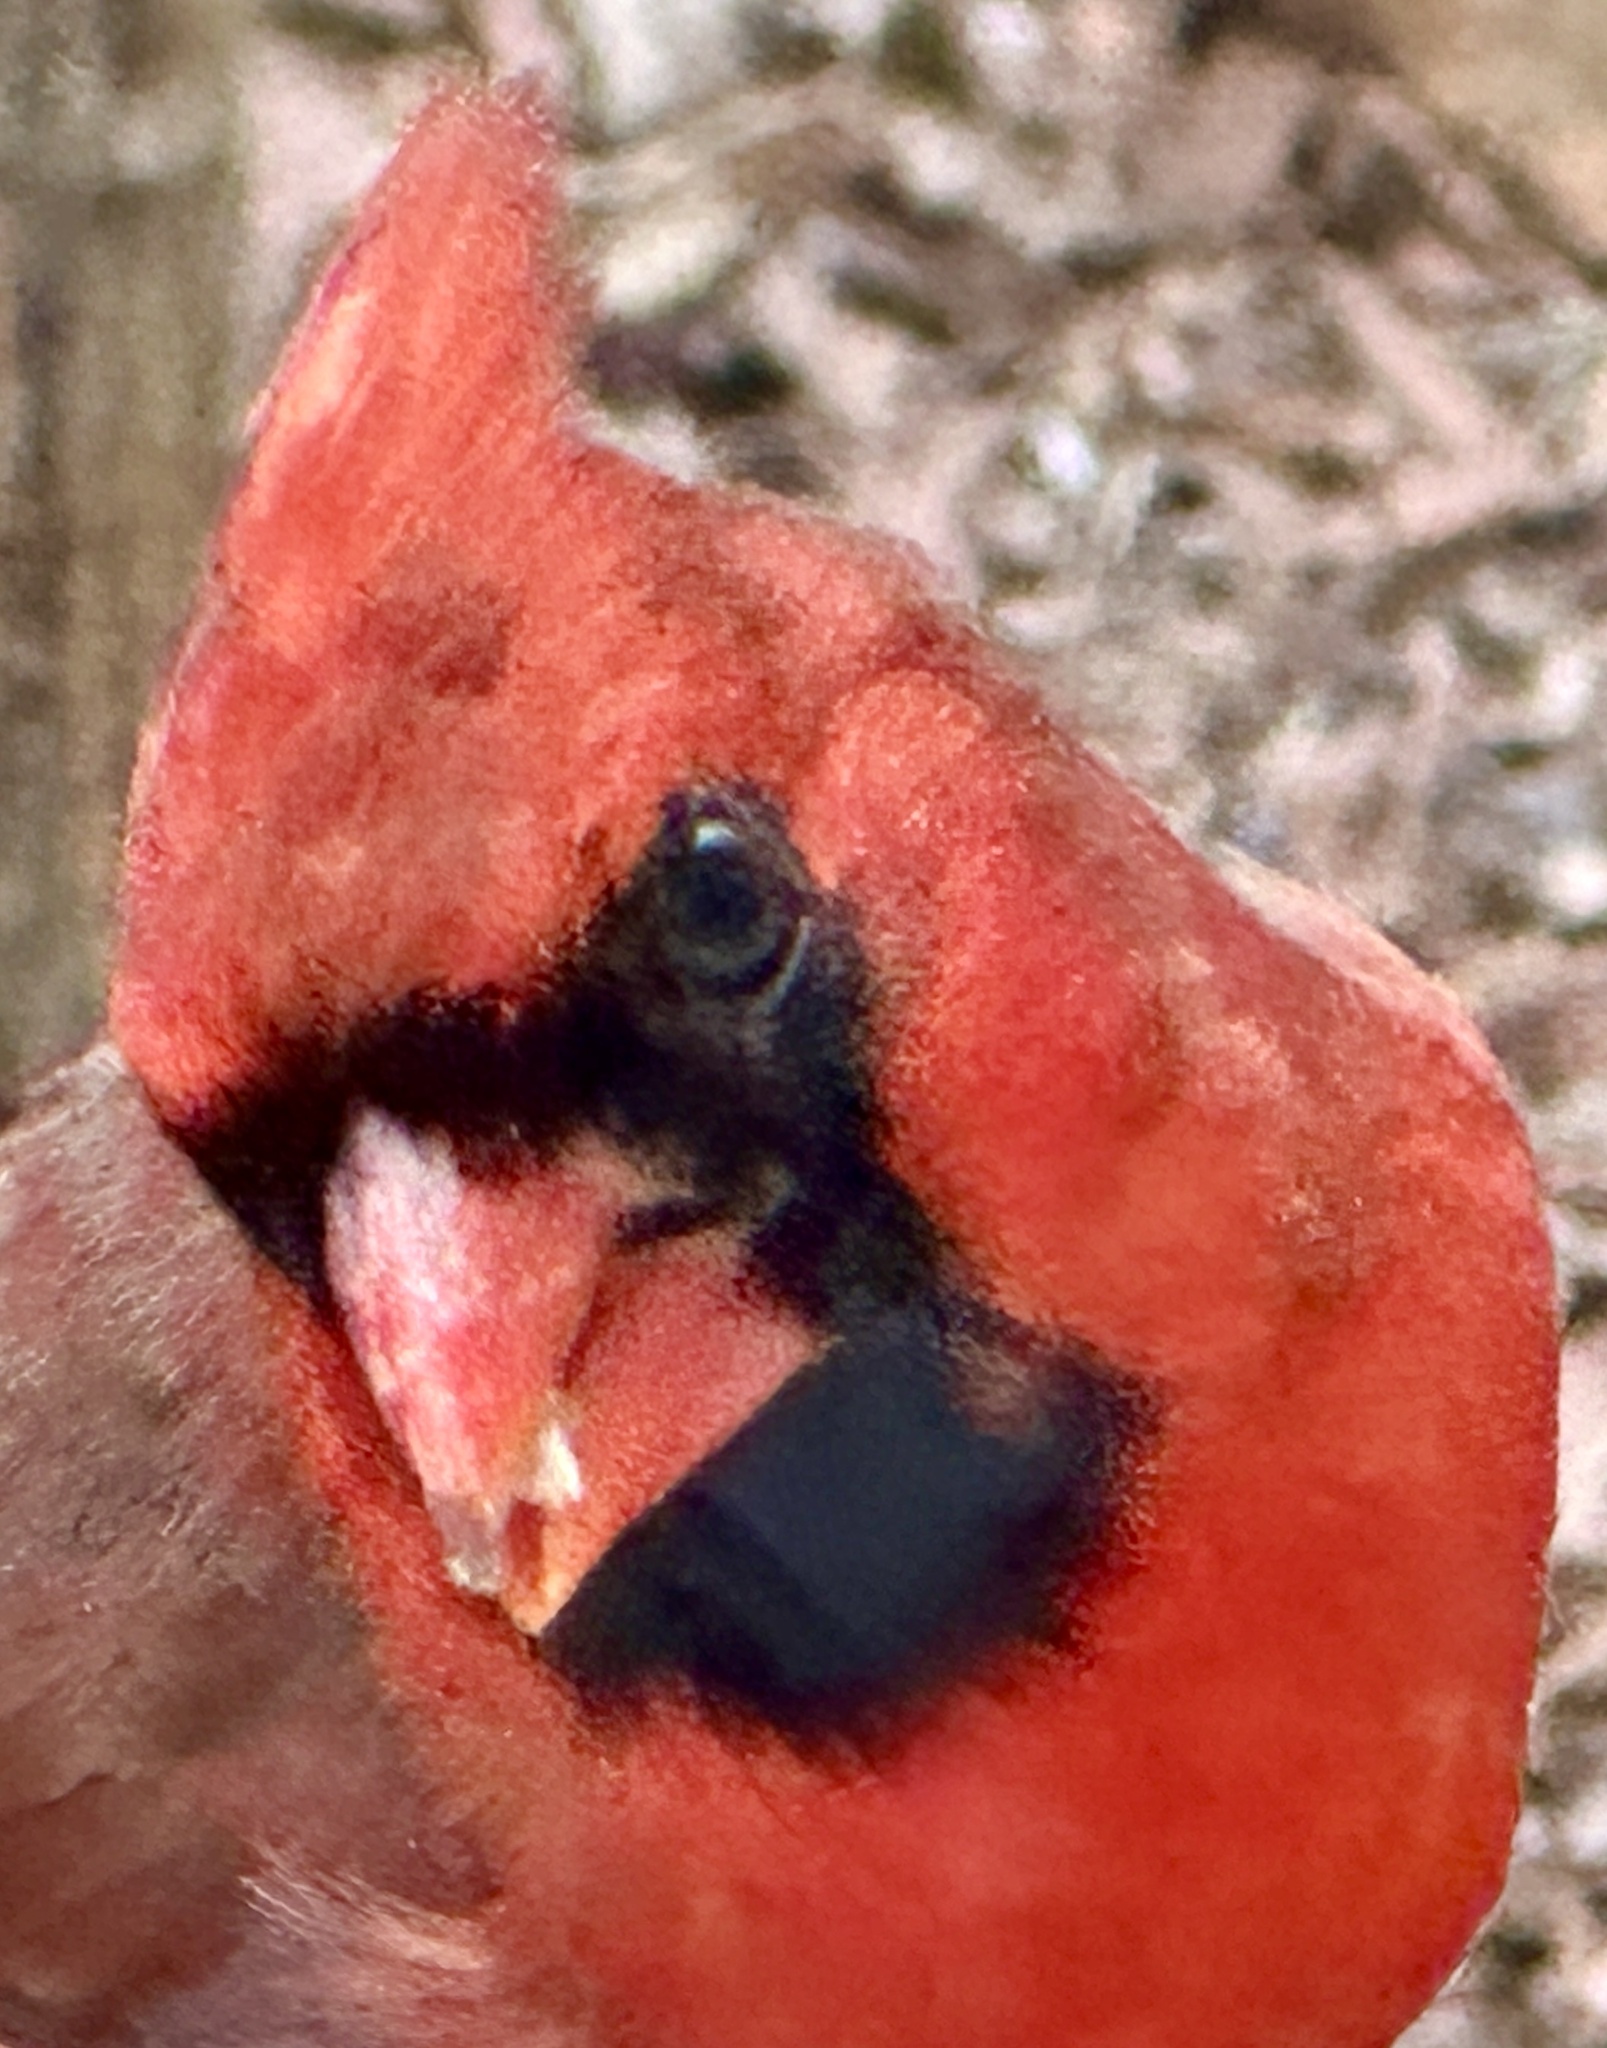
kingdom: Animalia
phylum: Chordata
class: Aves
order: Passeriformes
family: Cardinalidae
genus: Cardinalis
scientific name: Cardinalis cardinalis
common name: Northern cardinal
